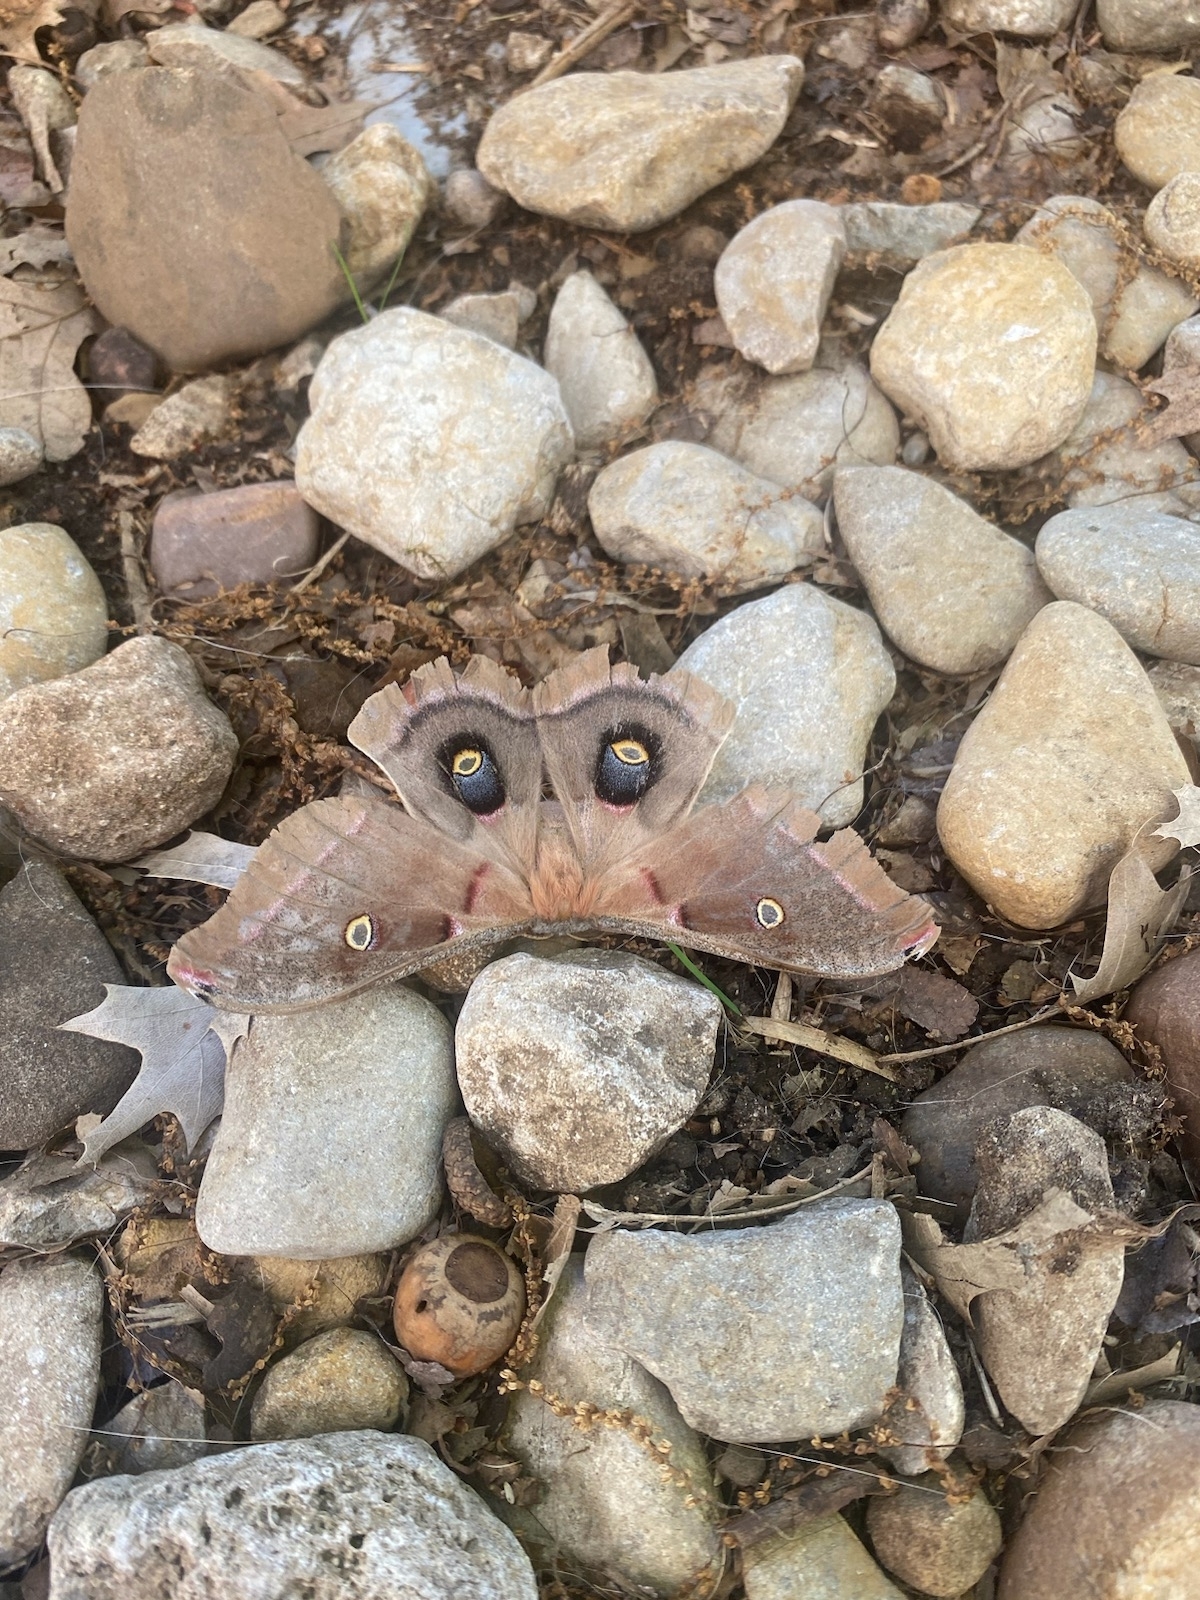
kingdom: Animalia
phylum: Arthropoda
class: Insecta
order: Lepidoptera
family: Saturniidae
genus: Antheraea
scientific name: Antheraea polyphemus
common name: Polyphemus moth
